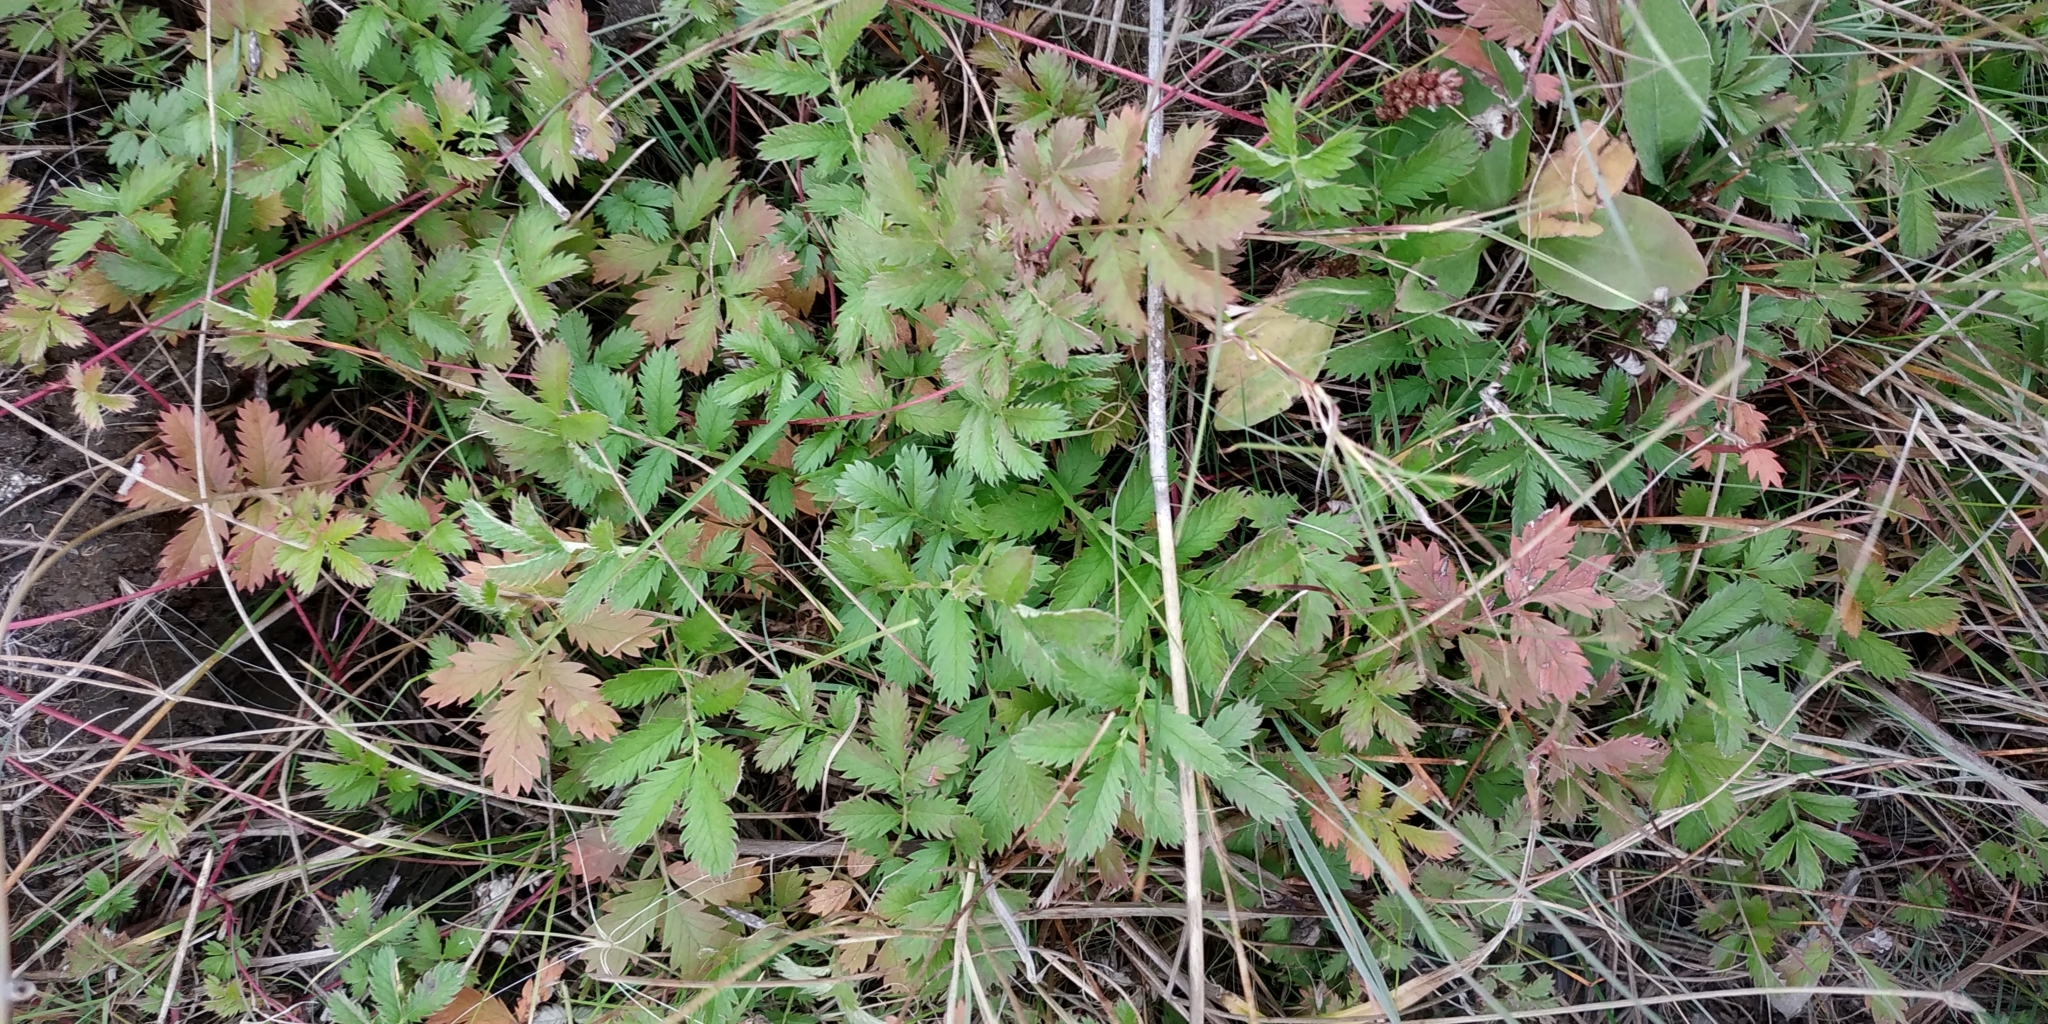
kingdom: Plantae
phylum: Tracheophyta
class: Magnoliopsida
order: Rosales
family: Rosaceae
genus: Argentina
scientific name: Argentina anserina
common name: Common silverweed
